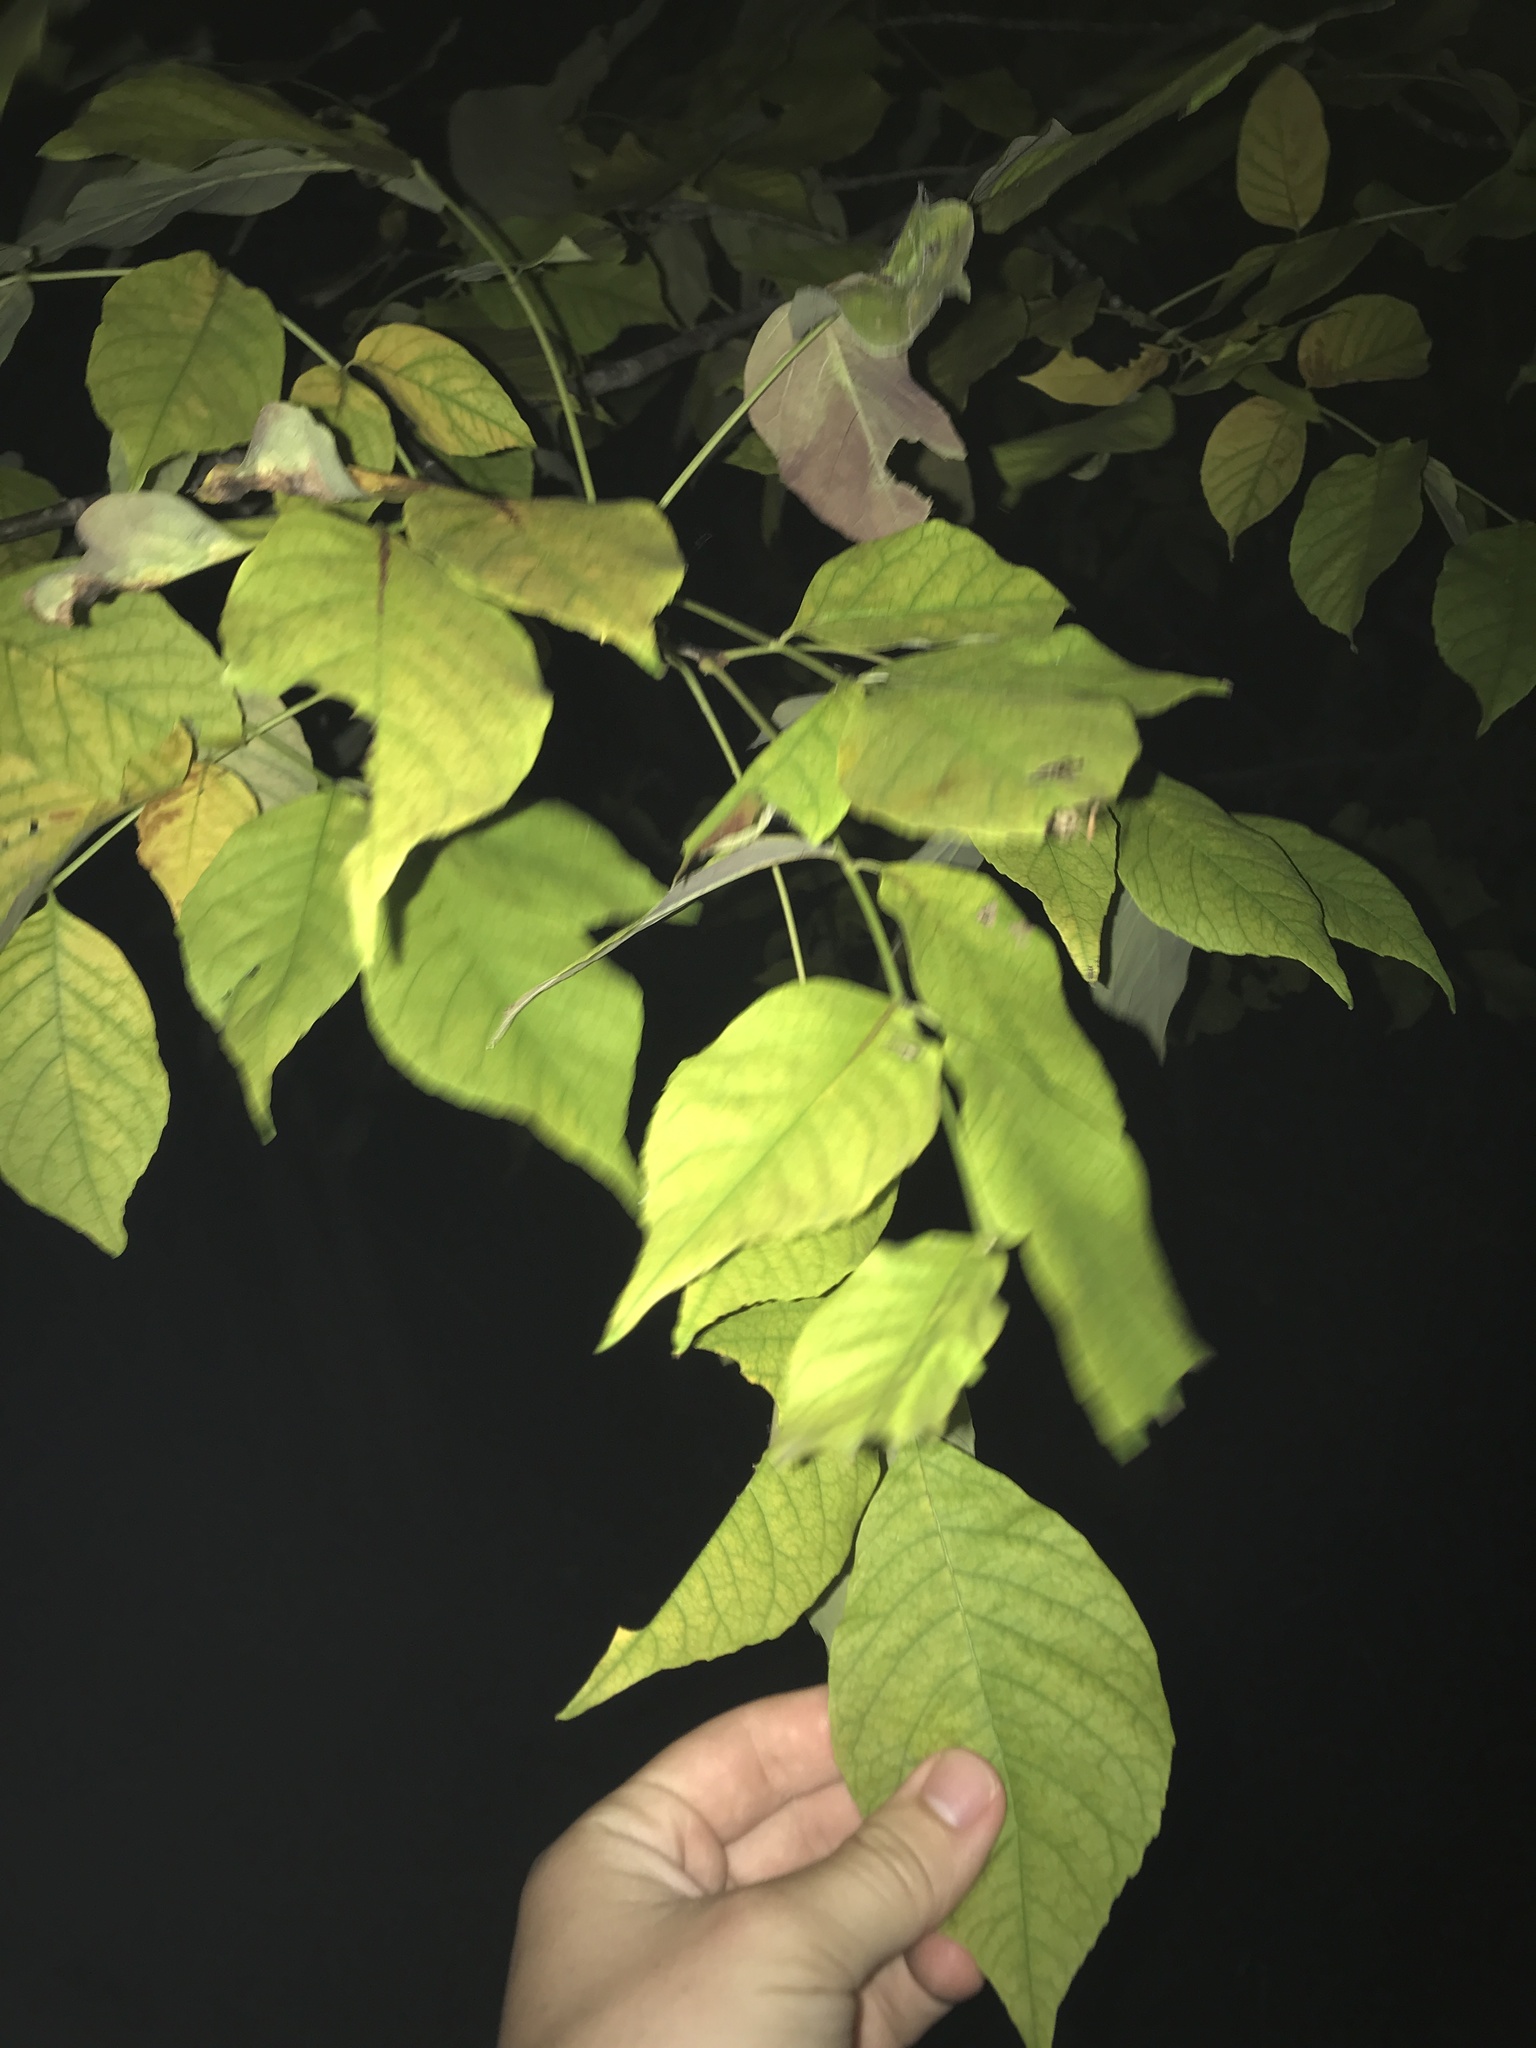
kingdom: Plantae
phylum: Tracheophyta
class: Magnoliopsida
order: Lamiales
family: Oleaceae
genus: Fraxinus
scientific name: Fraxinus americana
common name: White ash
